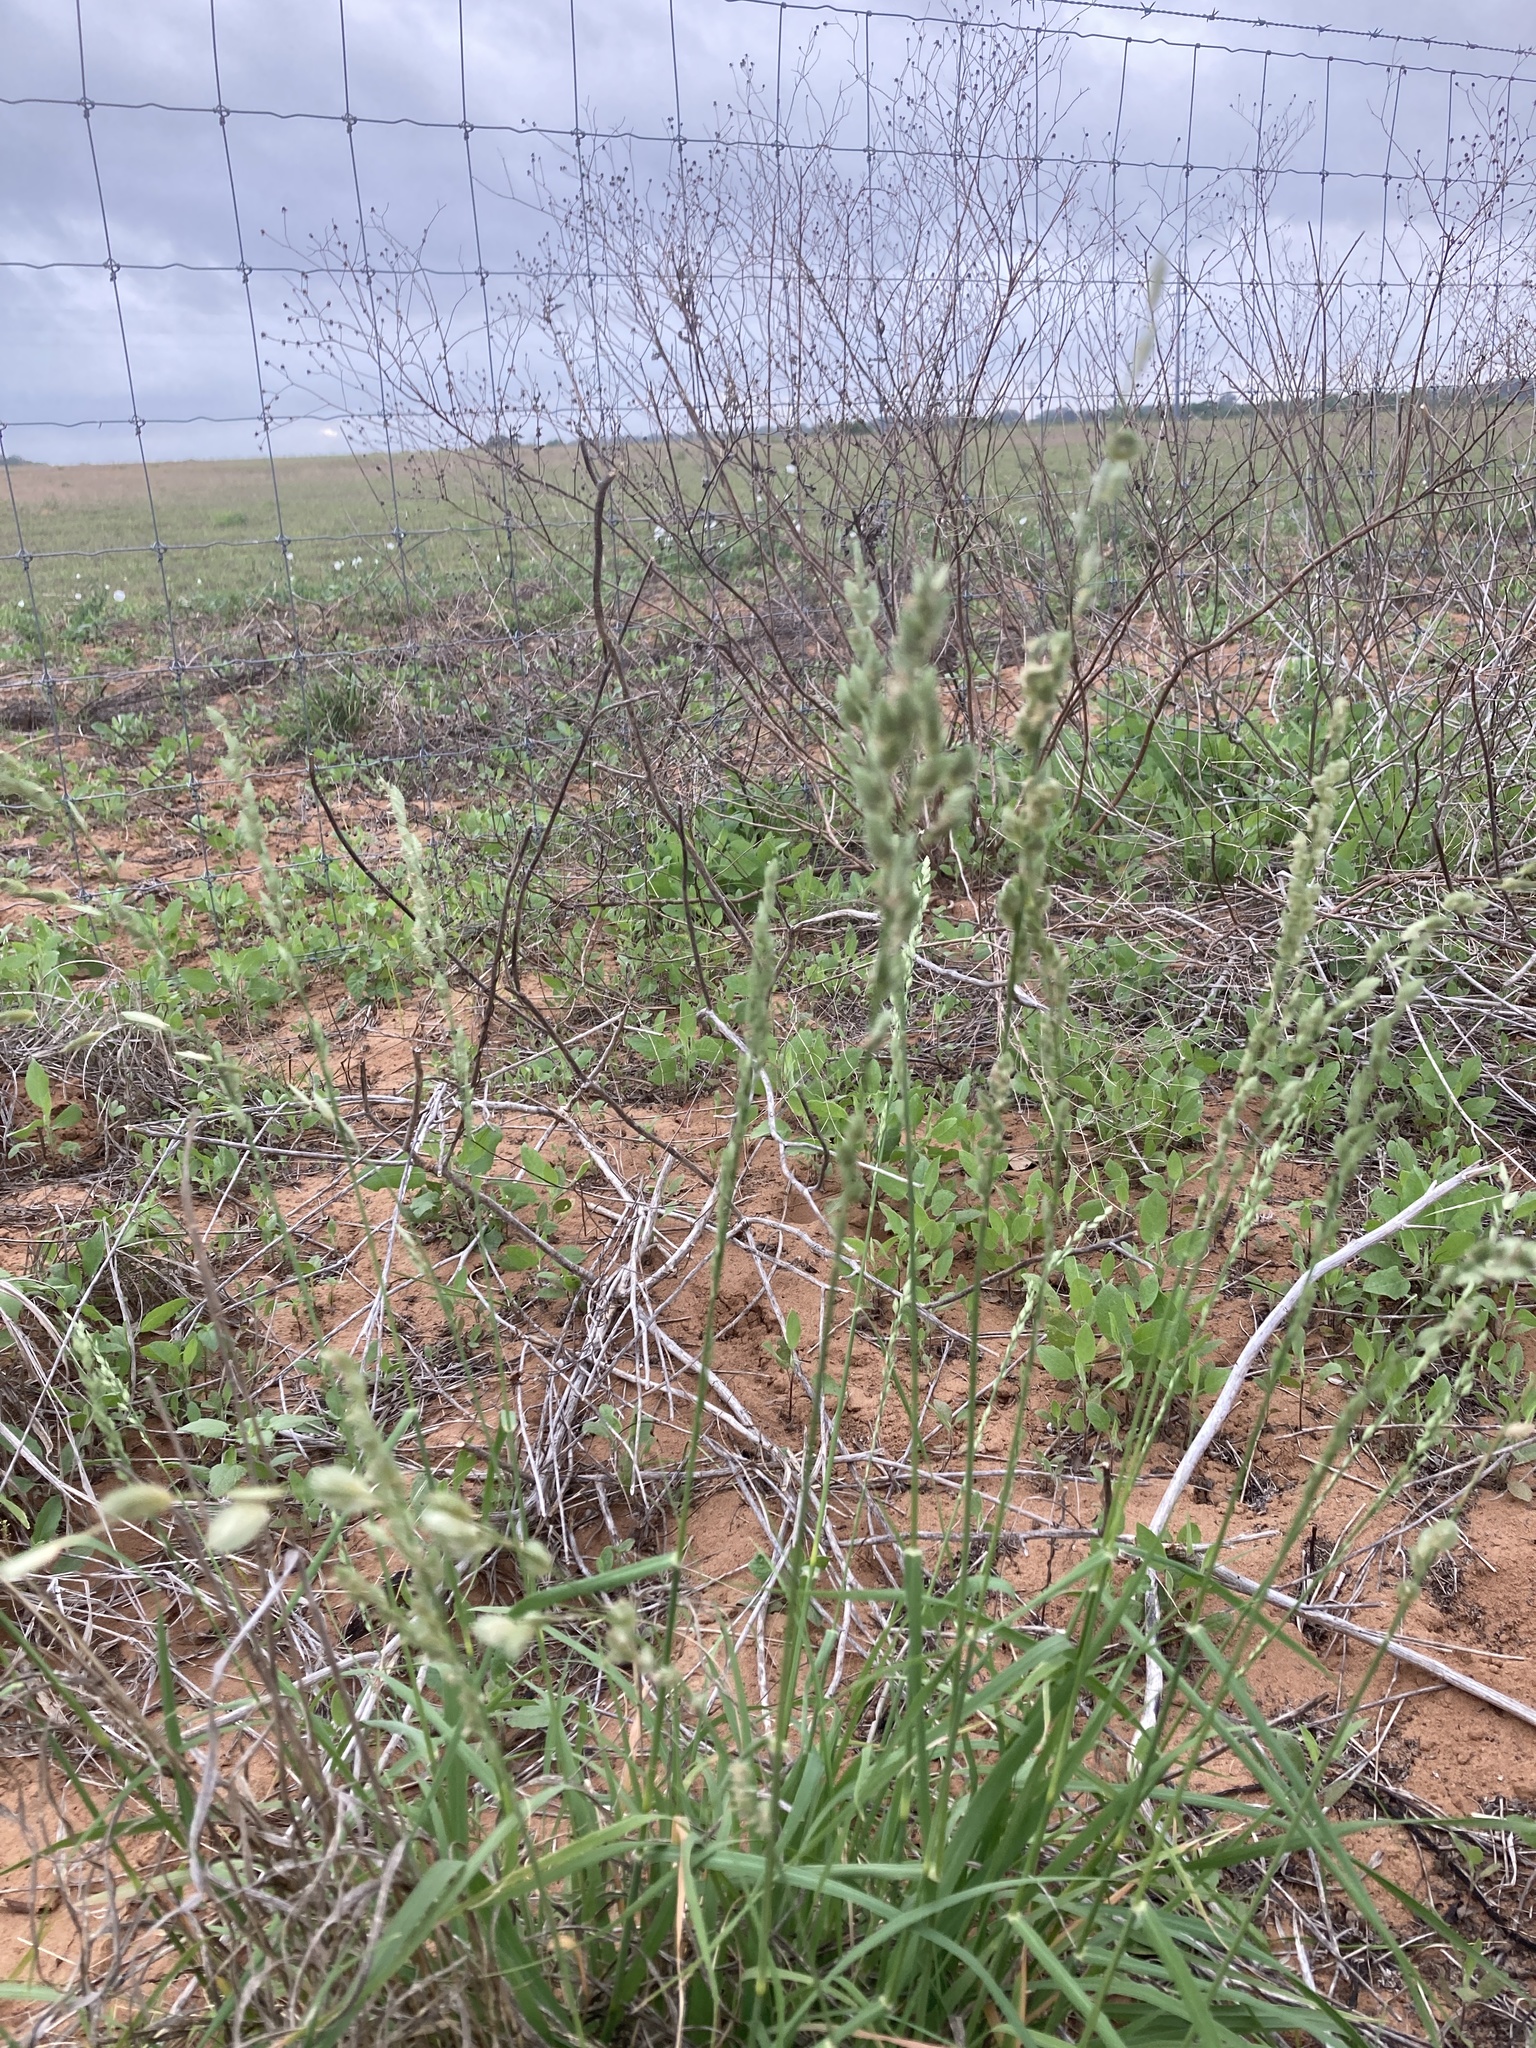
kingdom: Plantae
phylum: Tracheophyta
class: Liliopsida
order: Poales
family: Poaceae
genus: Eragrostis
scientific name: Eragrostis superba
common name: Wilman lovegrass
